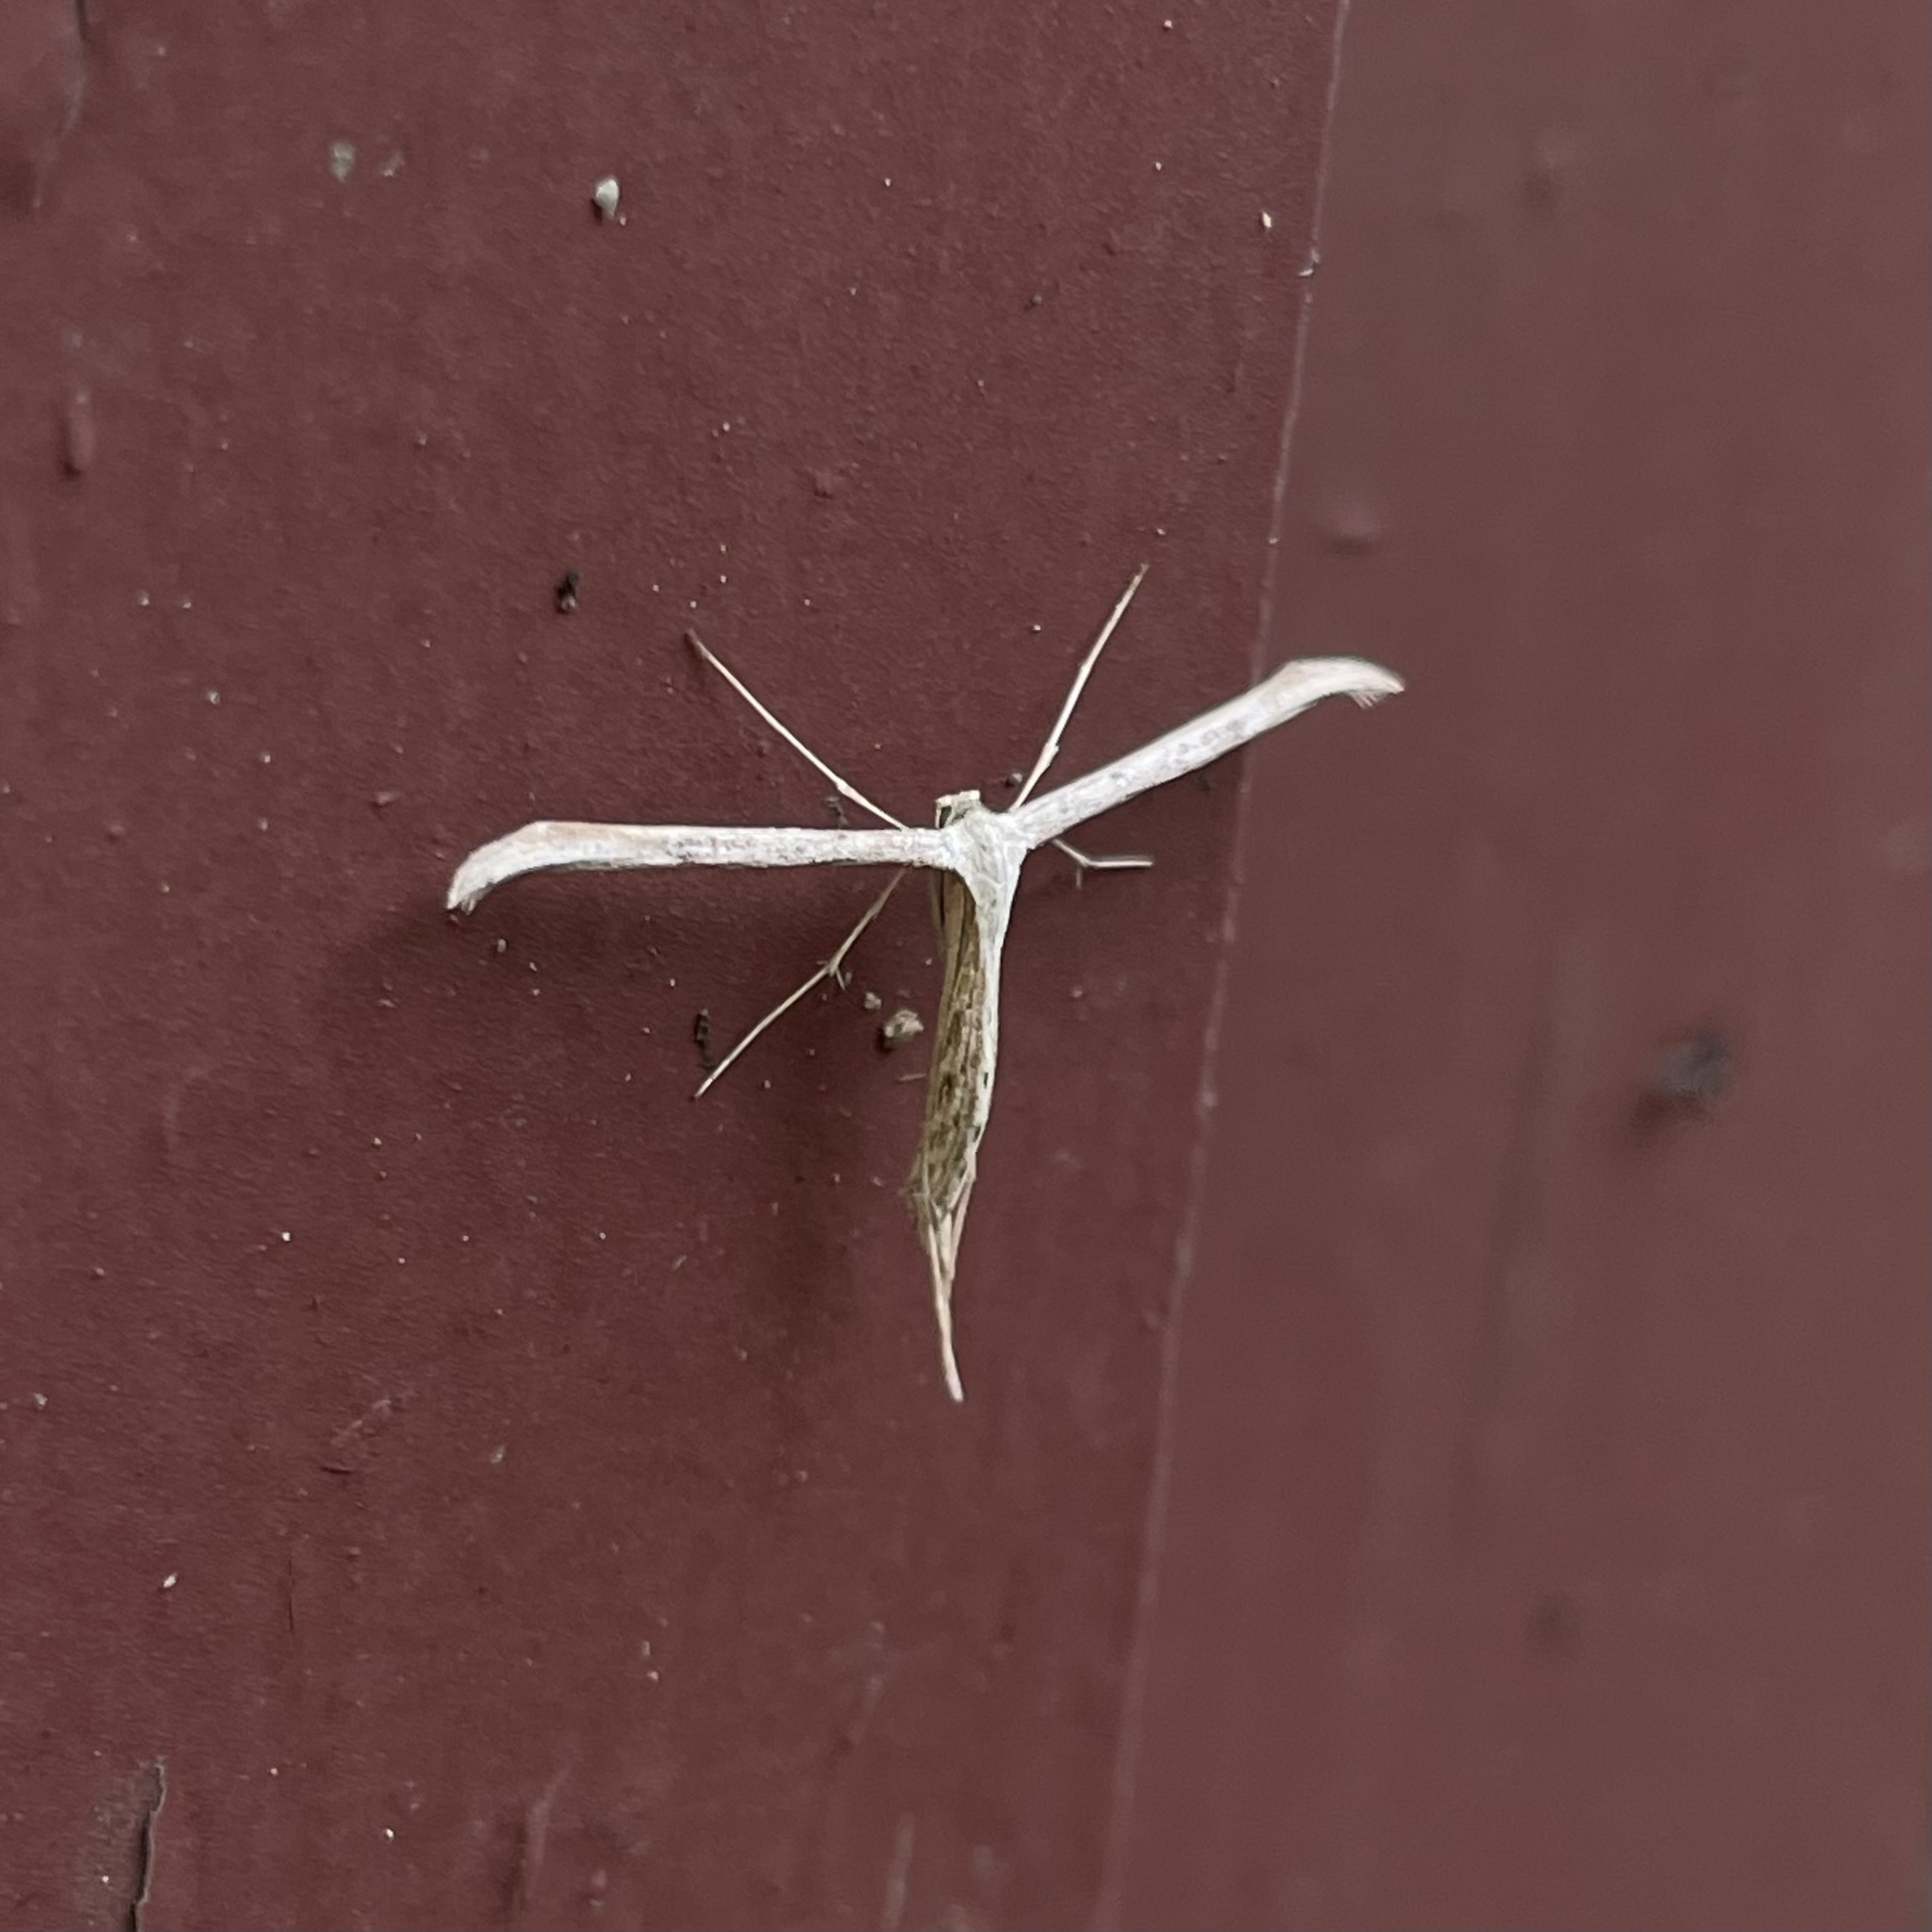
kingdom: Animalia
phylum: Arthropoda
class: Insecta
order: Lepidoptera
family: Pterophoridae
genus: Emmelina
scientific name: Emmelina monodactyla
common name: Common plume
